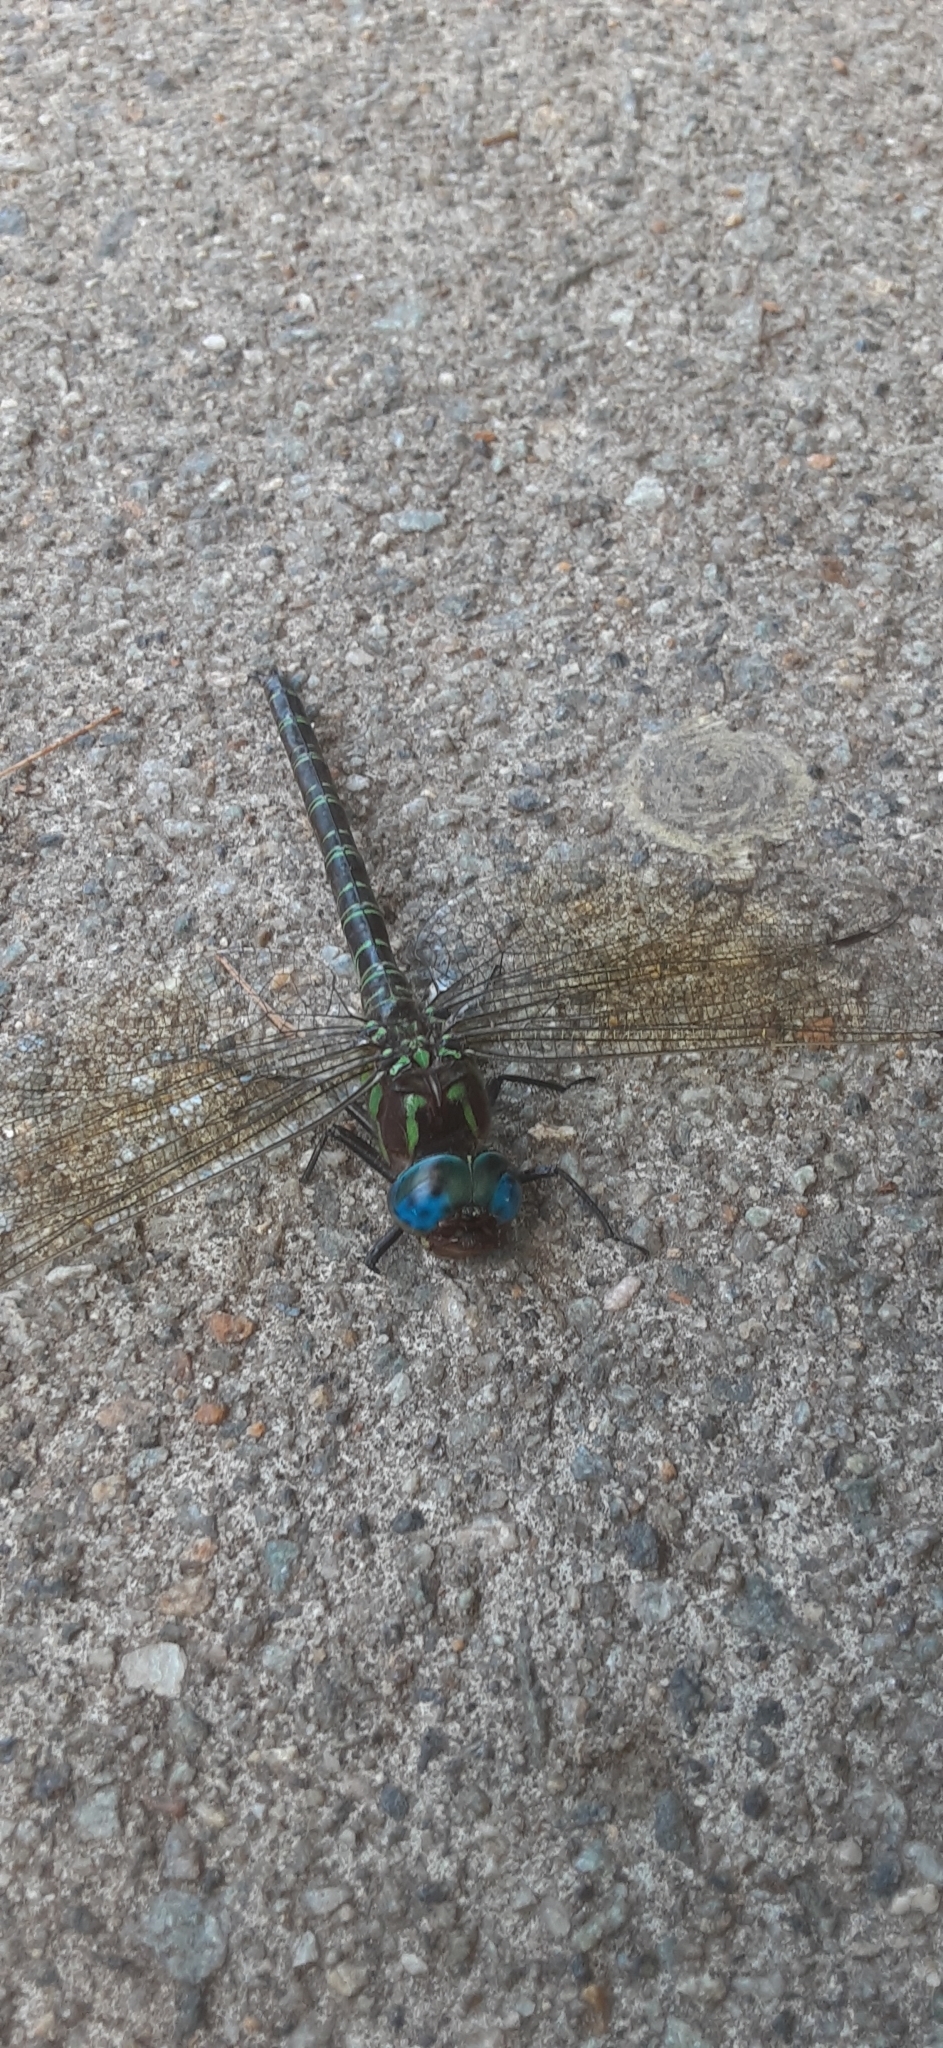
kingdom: Animalia
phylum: Arthropoda
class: Insecta
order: Odonata
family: Aeshnidae
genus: Epiaeschna
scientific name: Epiaeschna heros
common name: Swamp darner
